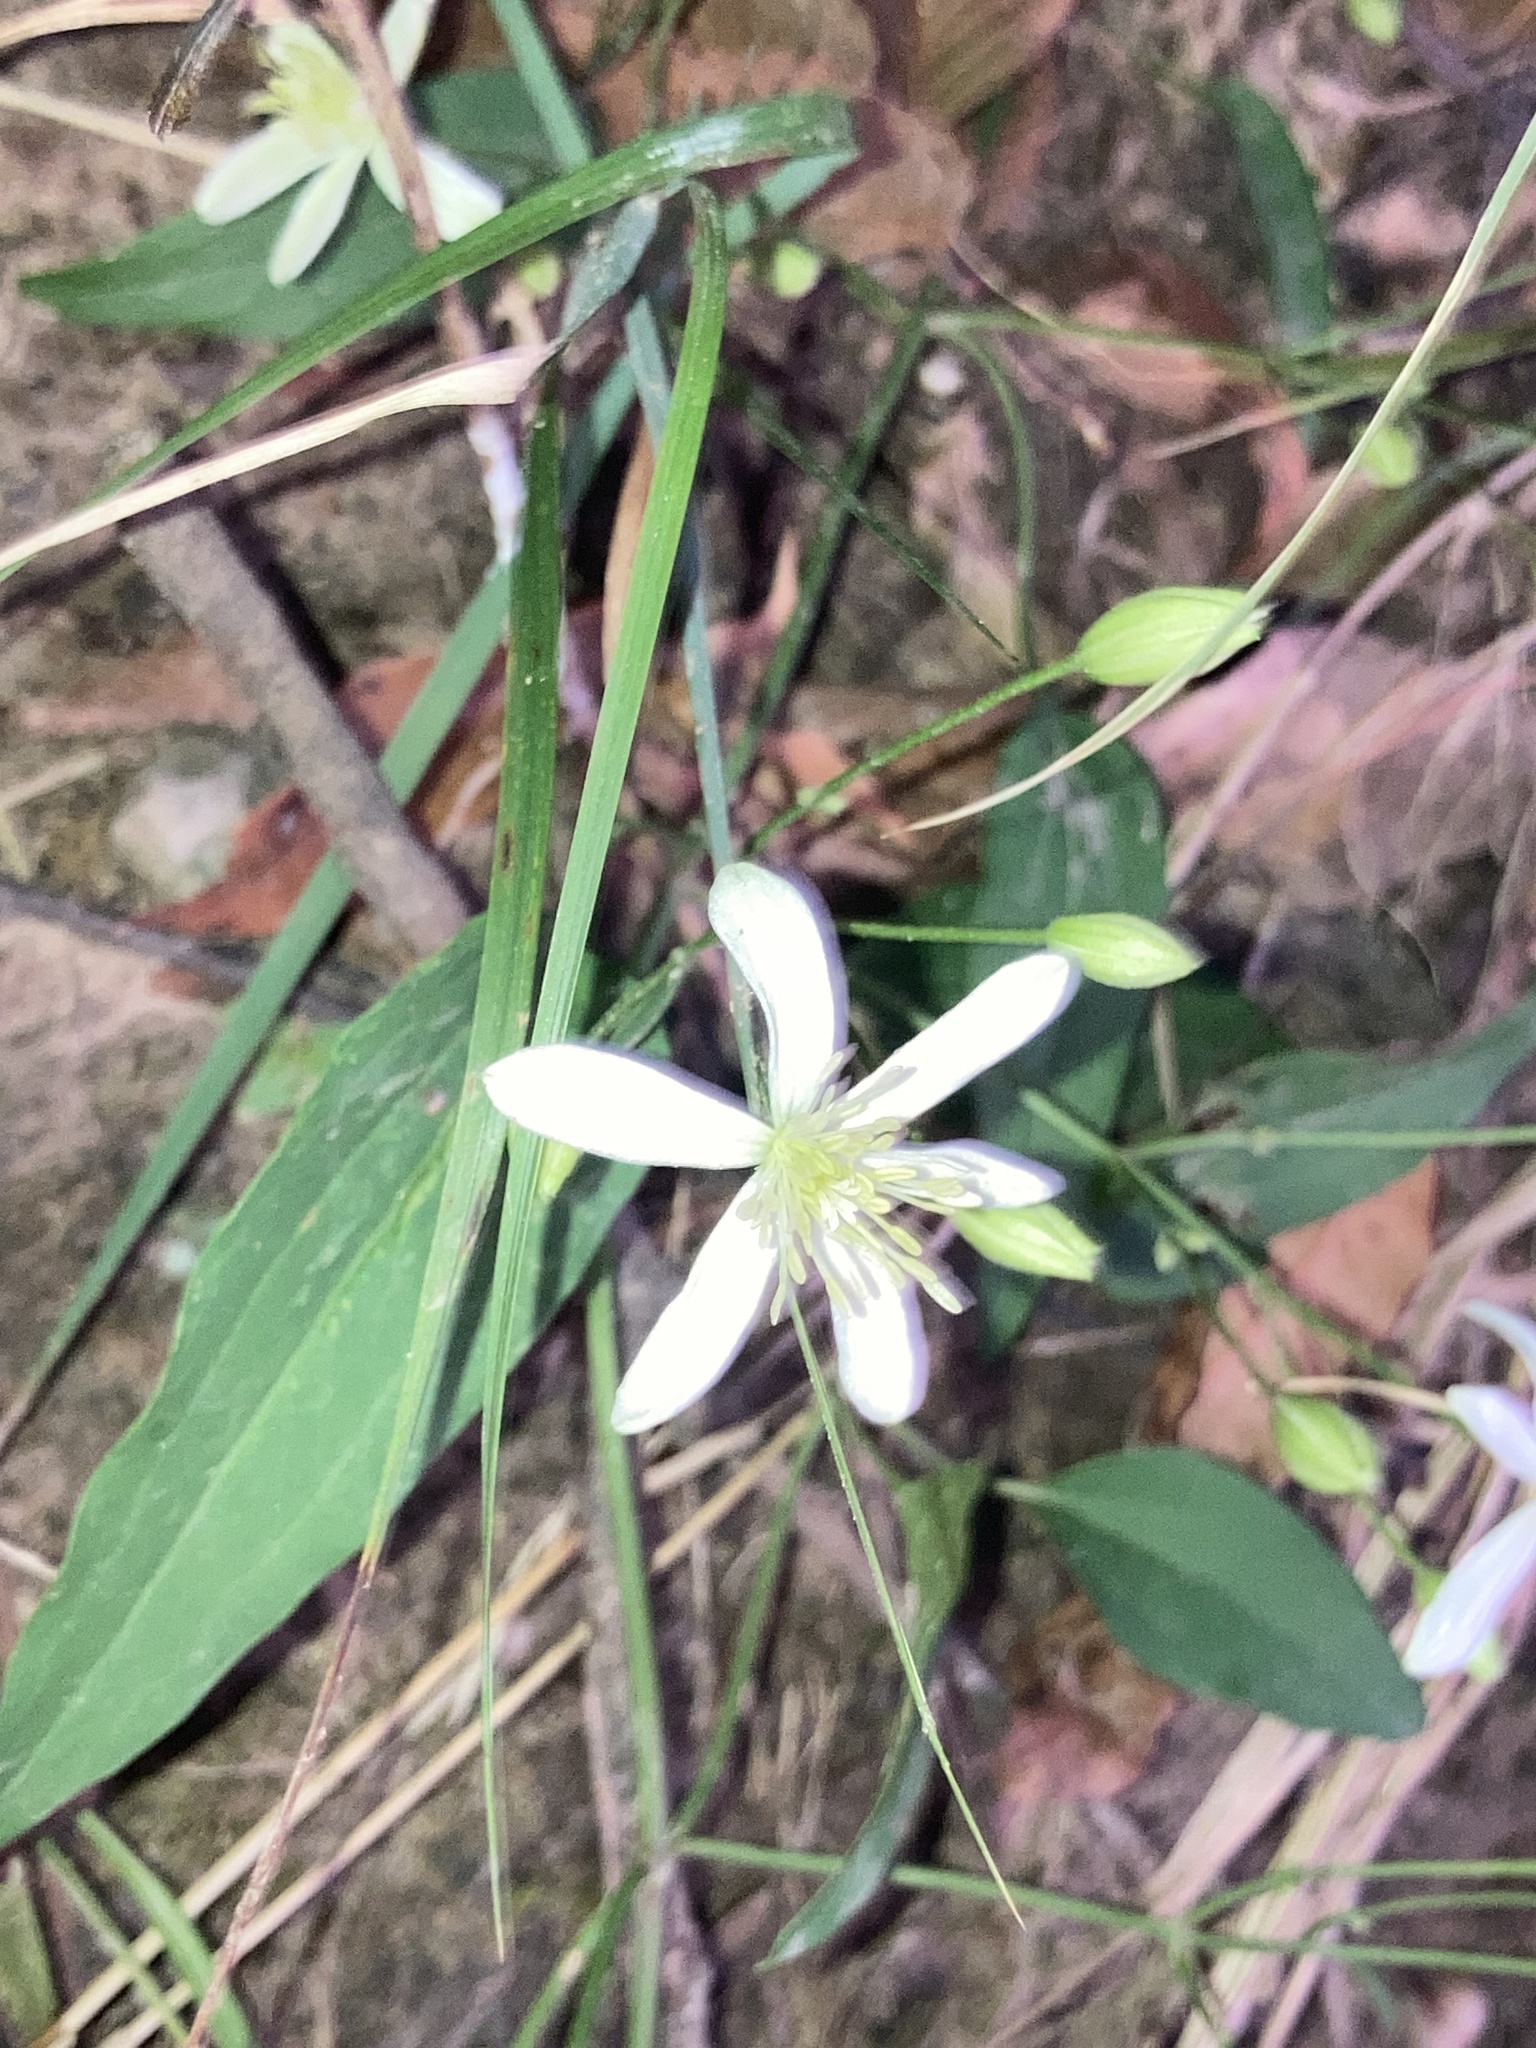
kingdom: Plantae
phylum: Tracheophyta
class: Magnoliopsida
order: Ranunculales
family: Ranunculaceae
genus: Clematis
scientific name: Clematis terniflora
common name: Sweet autumn clematis
